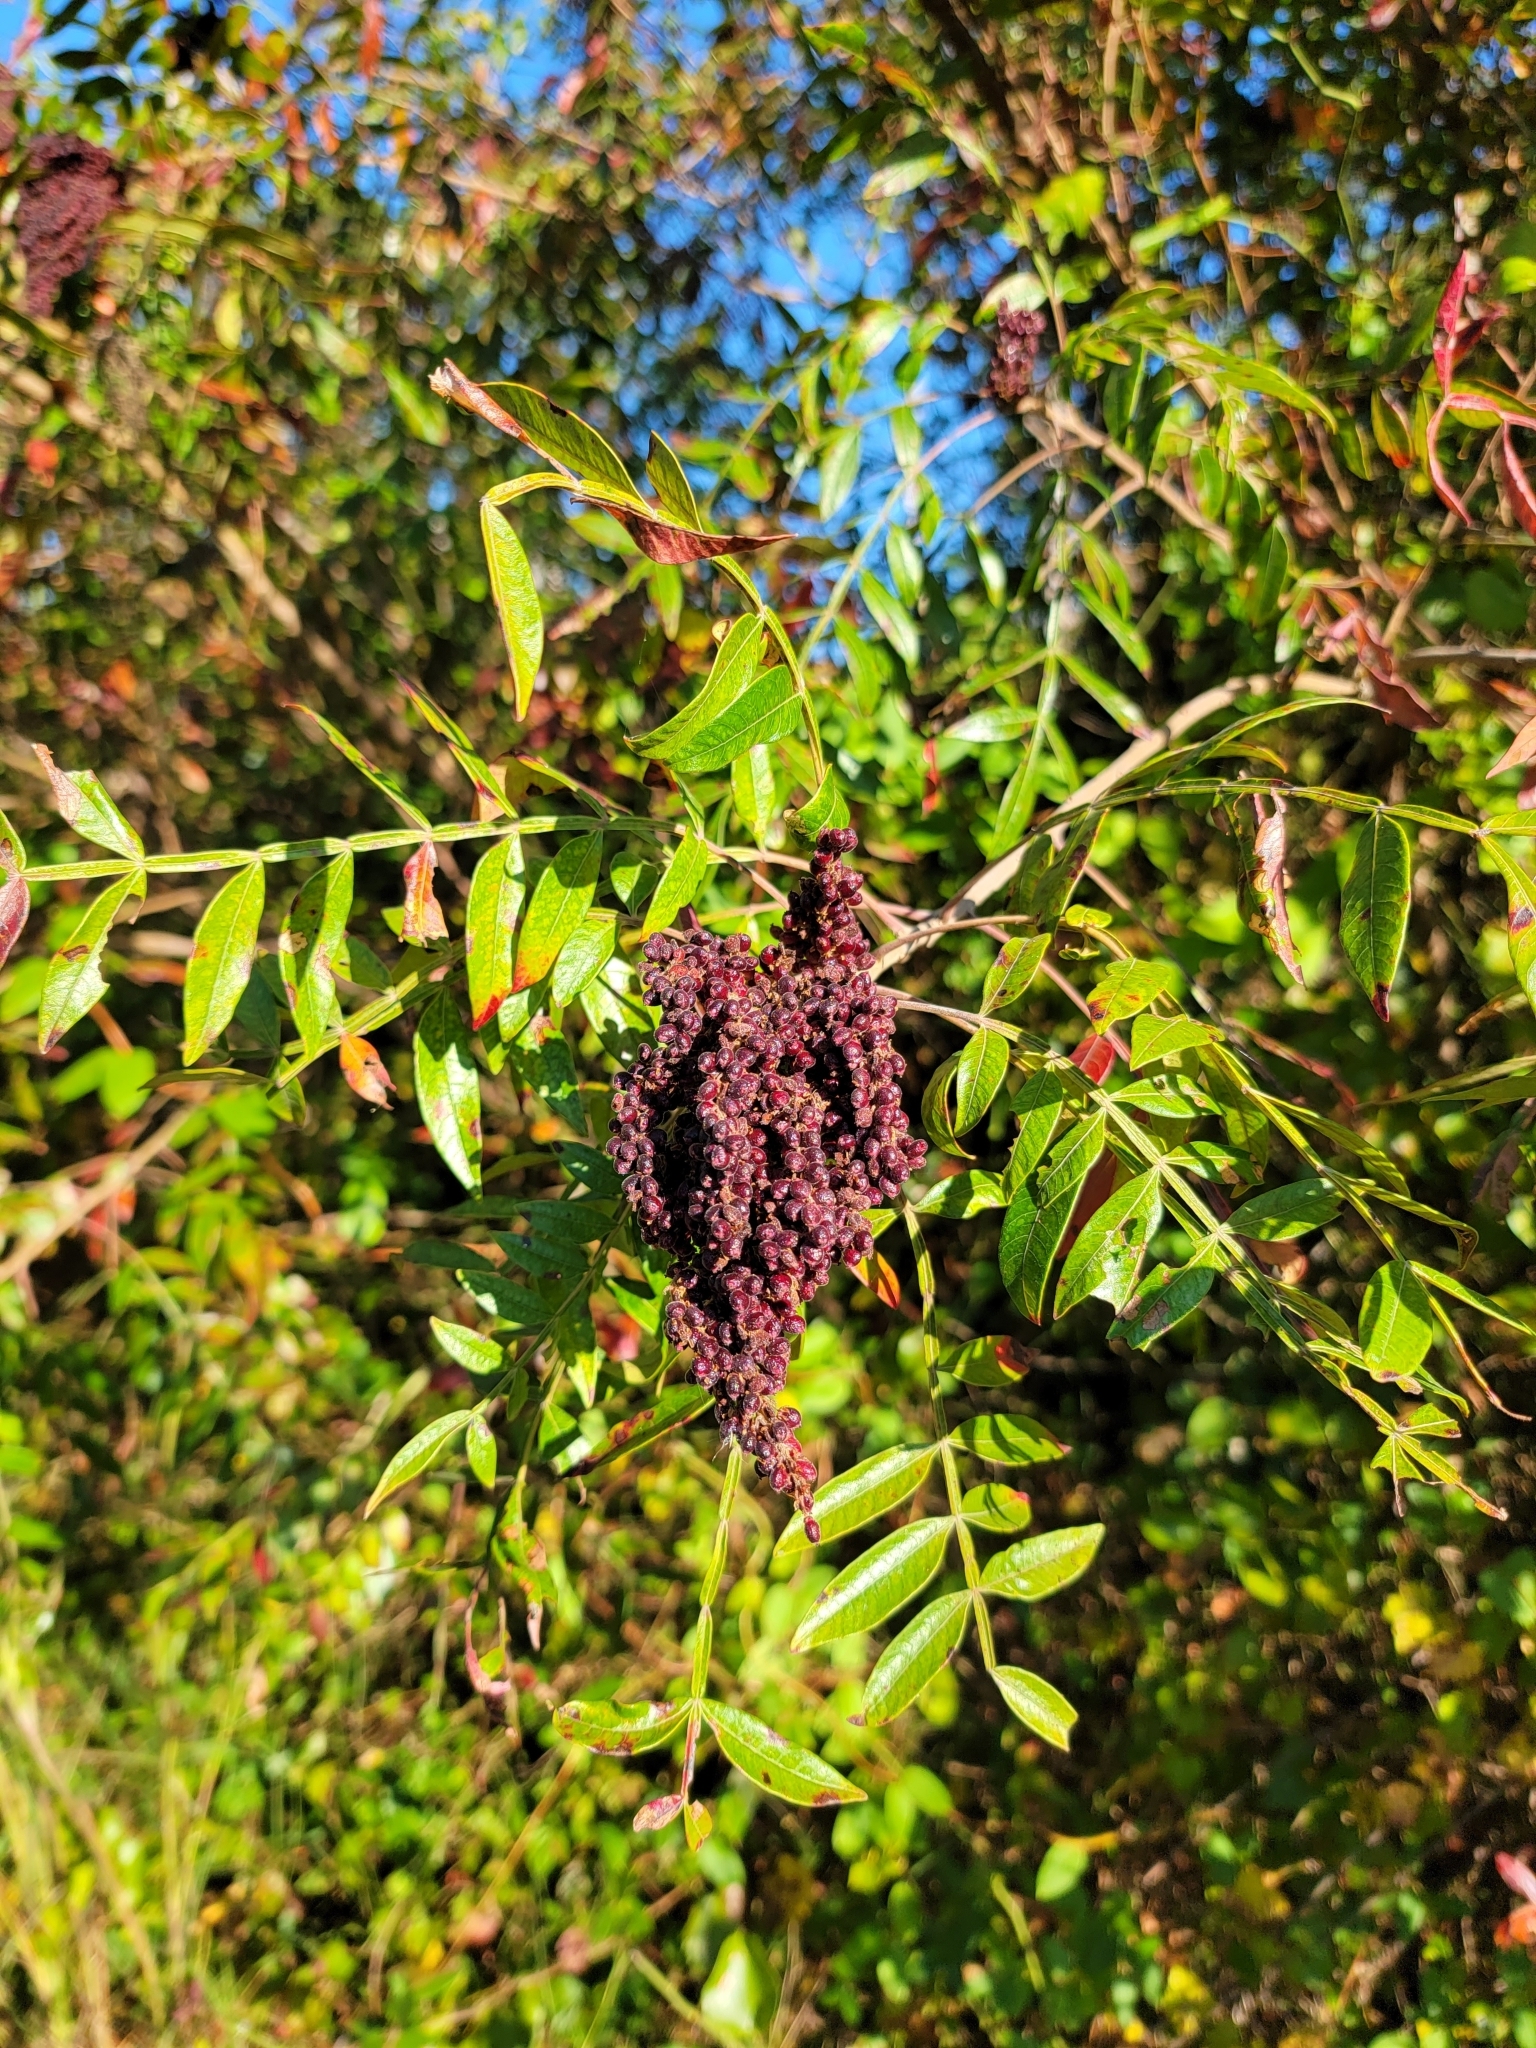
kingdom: Plantae
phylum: Tracheophyta
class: Magnoliopsida
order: Sapindales
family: Anacardiaceae
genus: Rhus
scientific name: Rhus copallina
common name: Shining sumac
